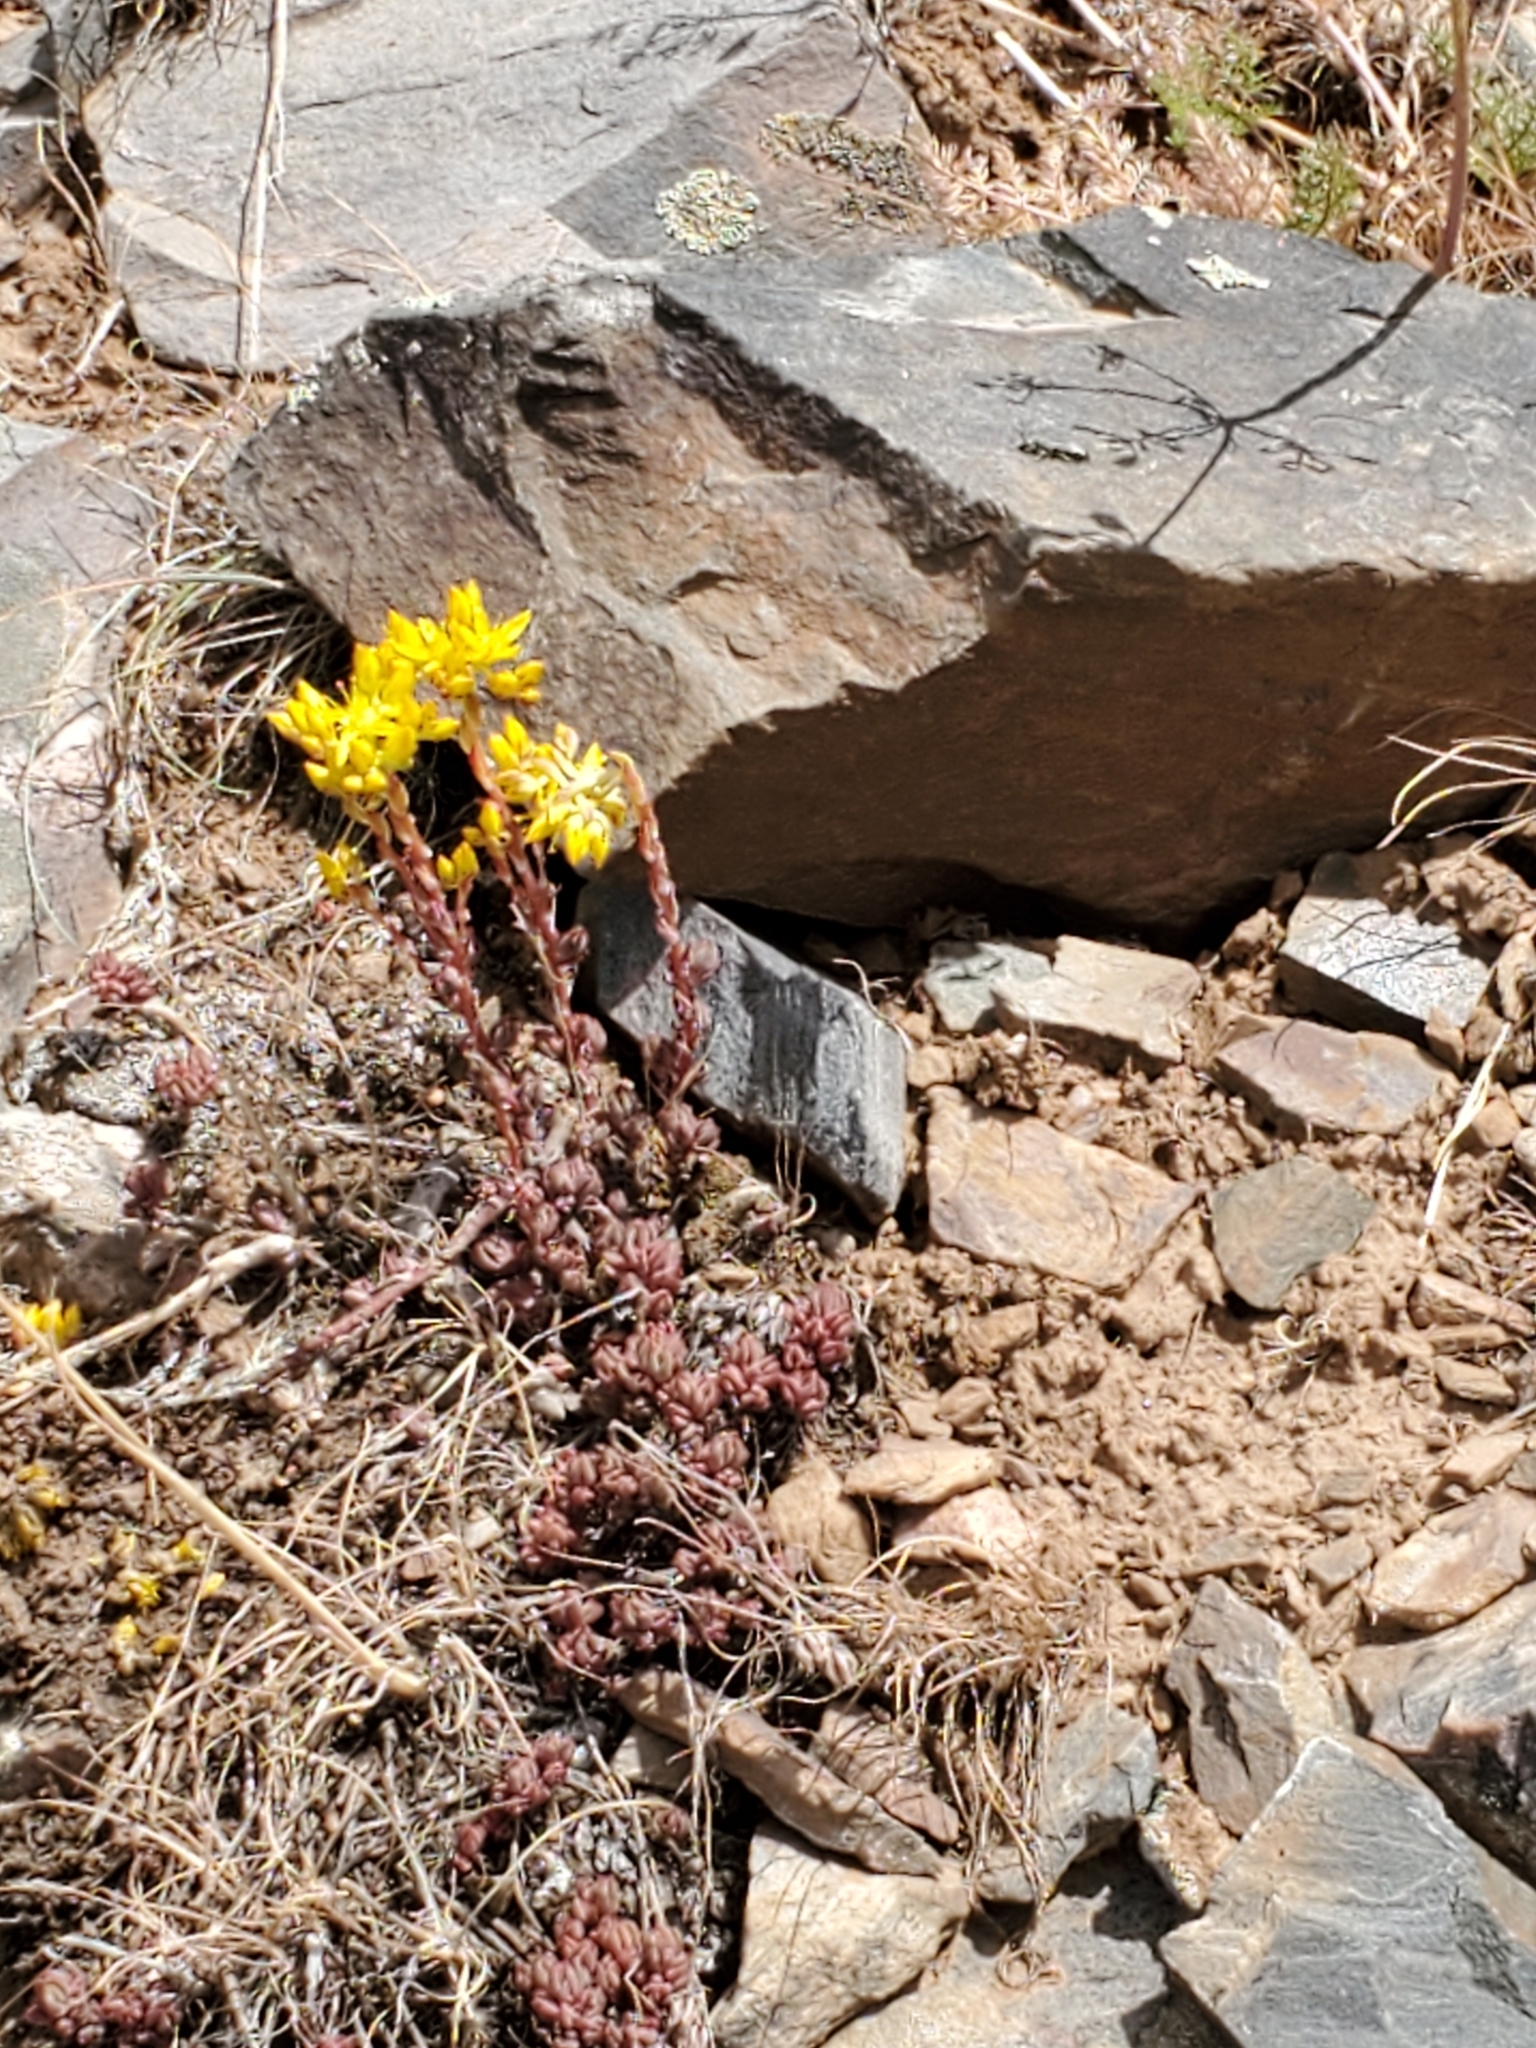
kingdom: Plantae
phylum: Tracheophyta
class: Magnoliopsida
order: Saxifragales
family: Crassulaceae
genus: Sedum
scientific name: Sedum lanceolatum
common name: Common stonecrop
